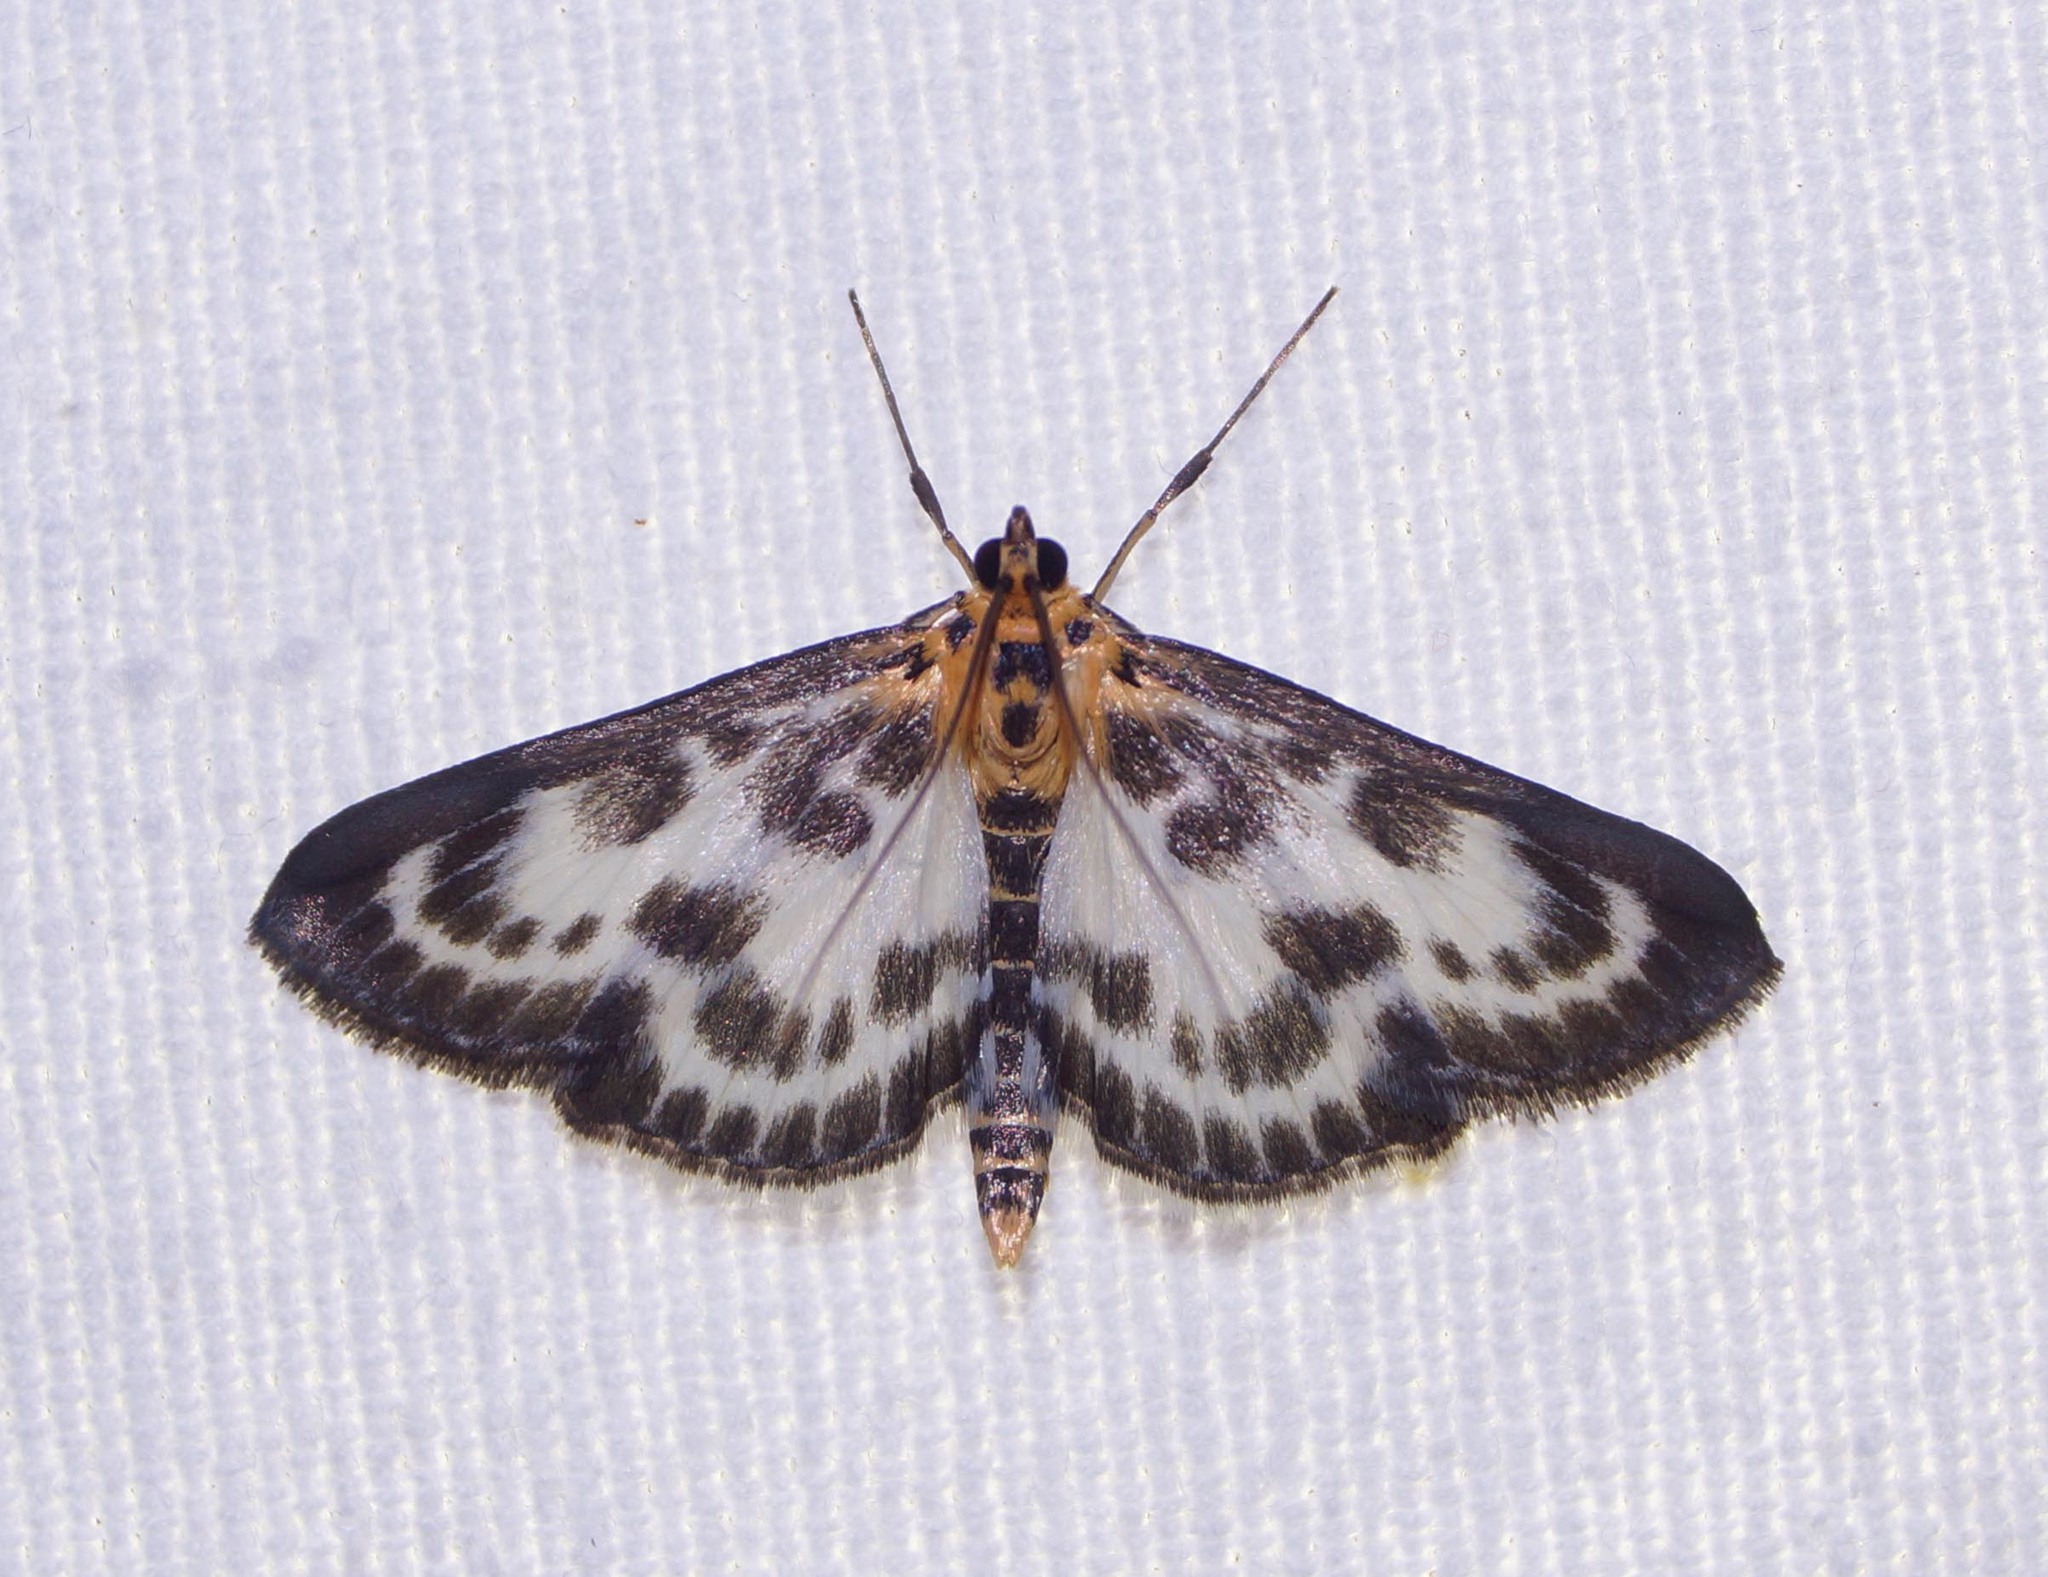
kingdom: Animalia
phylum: Arthropoda
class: Insecta
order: Lepidoptera
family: Crambidae
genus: Anania
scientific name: Anania hortulata
